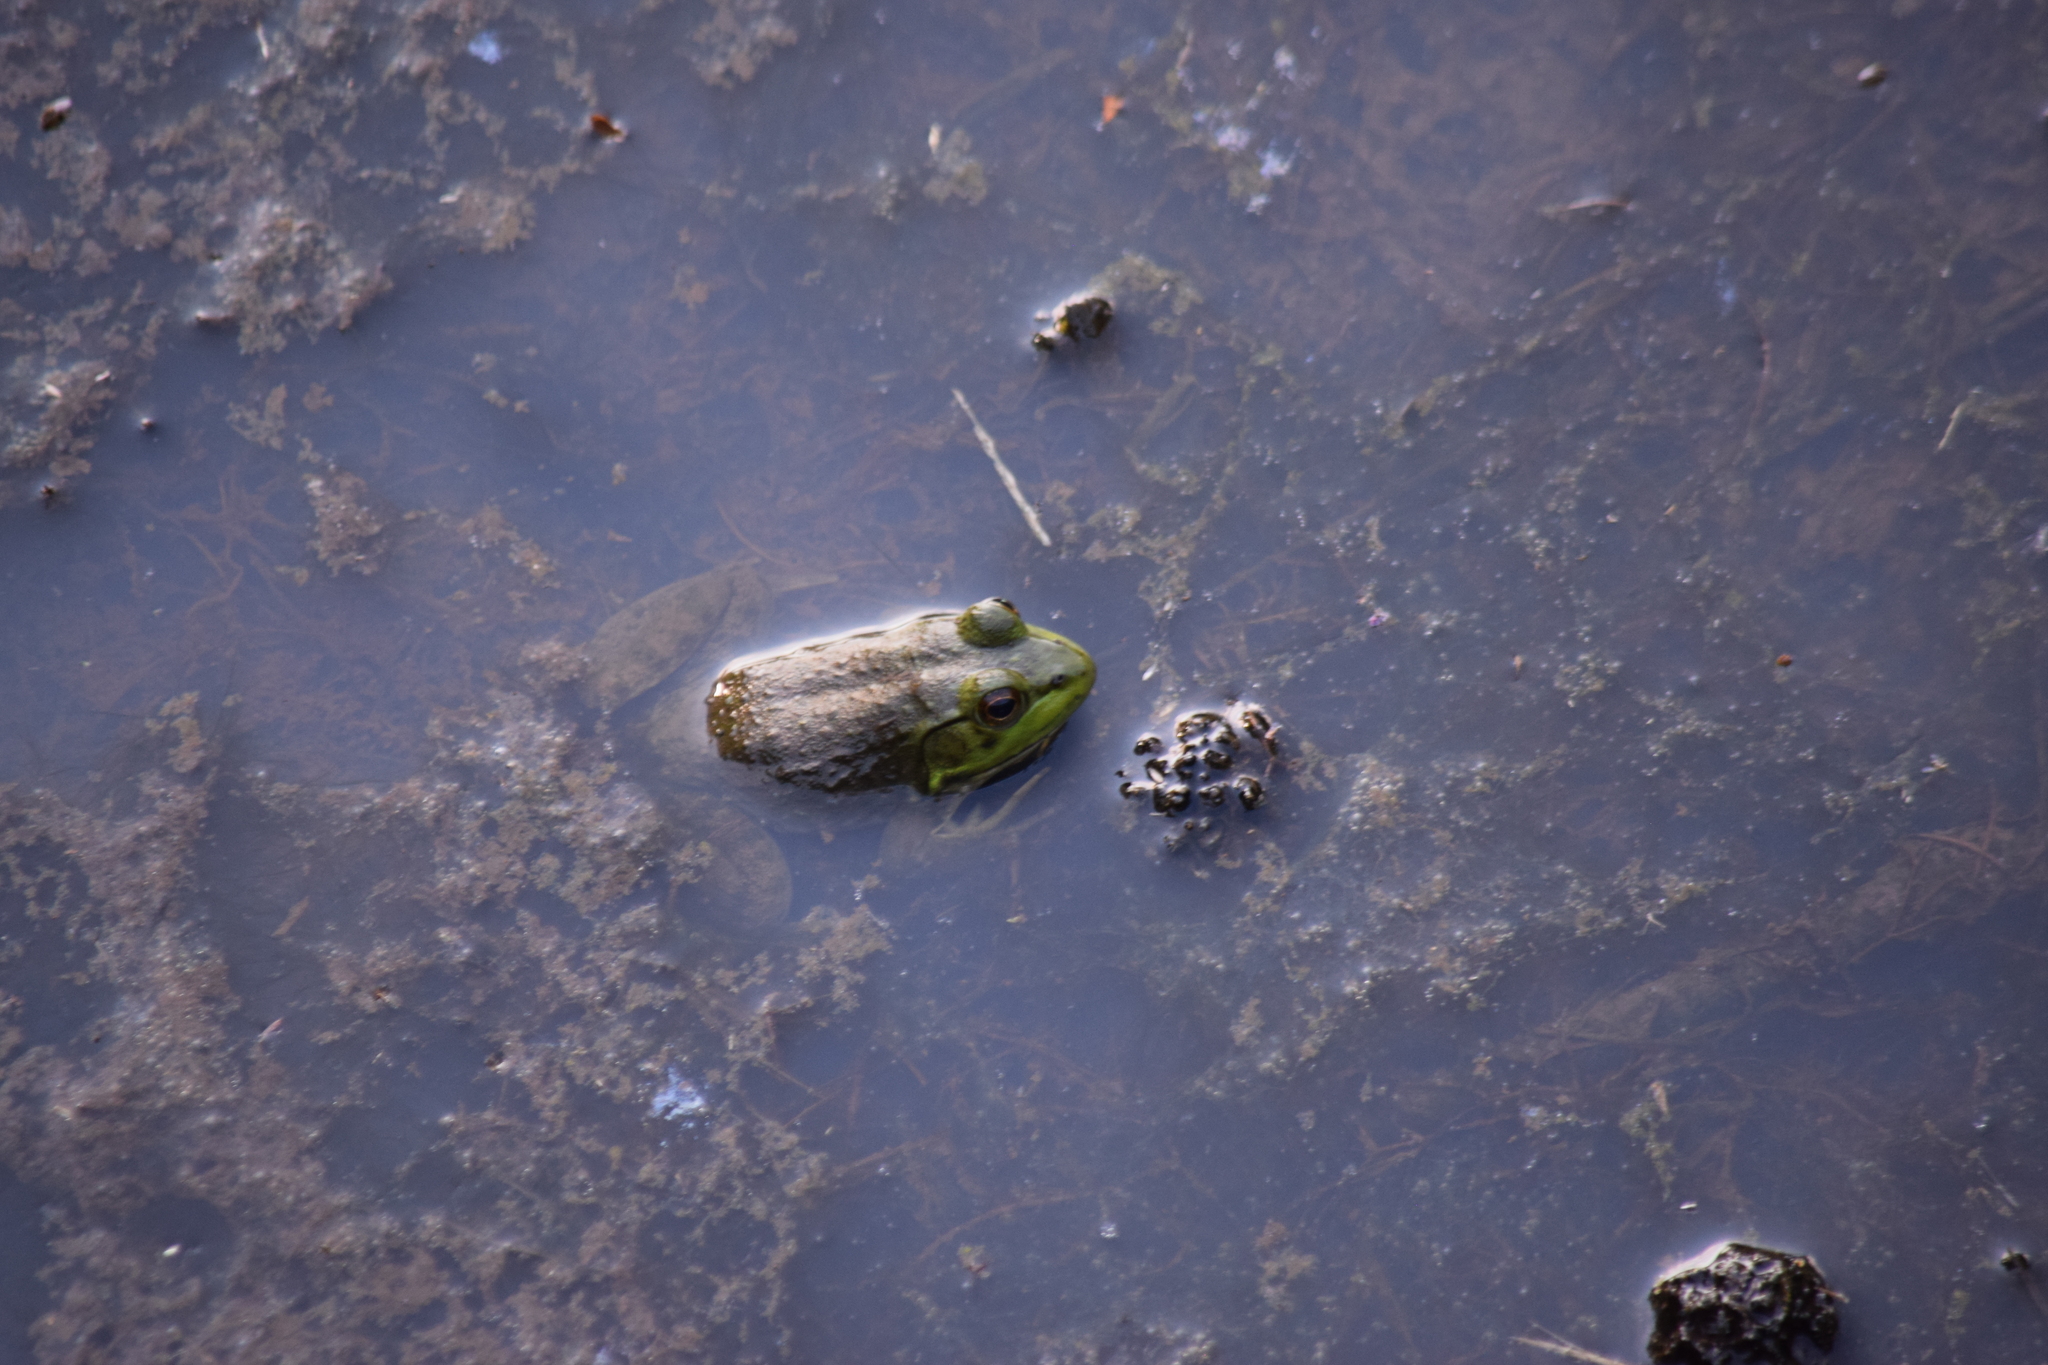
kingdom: Animalia
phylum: Chordata
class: Amphibia
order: Anura
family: Ranidae
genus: Lithobates
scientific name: Lithobates catesbeianus
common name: American bullfrog
